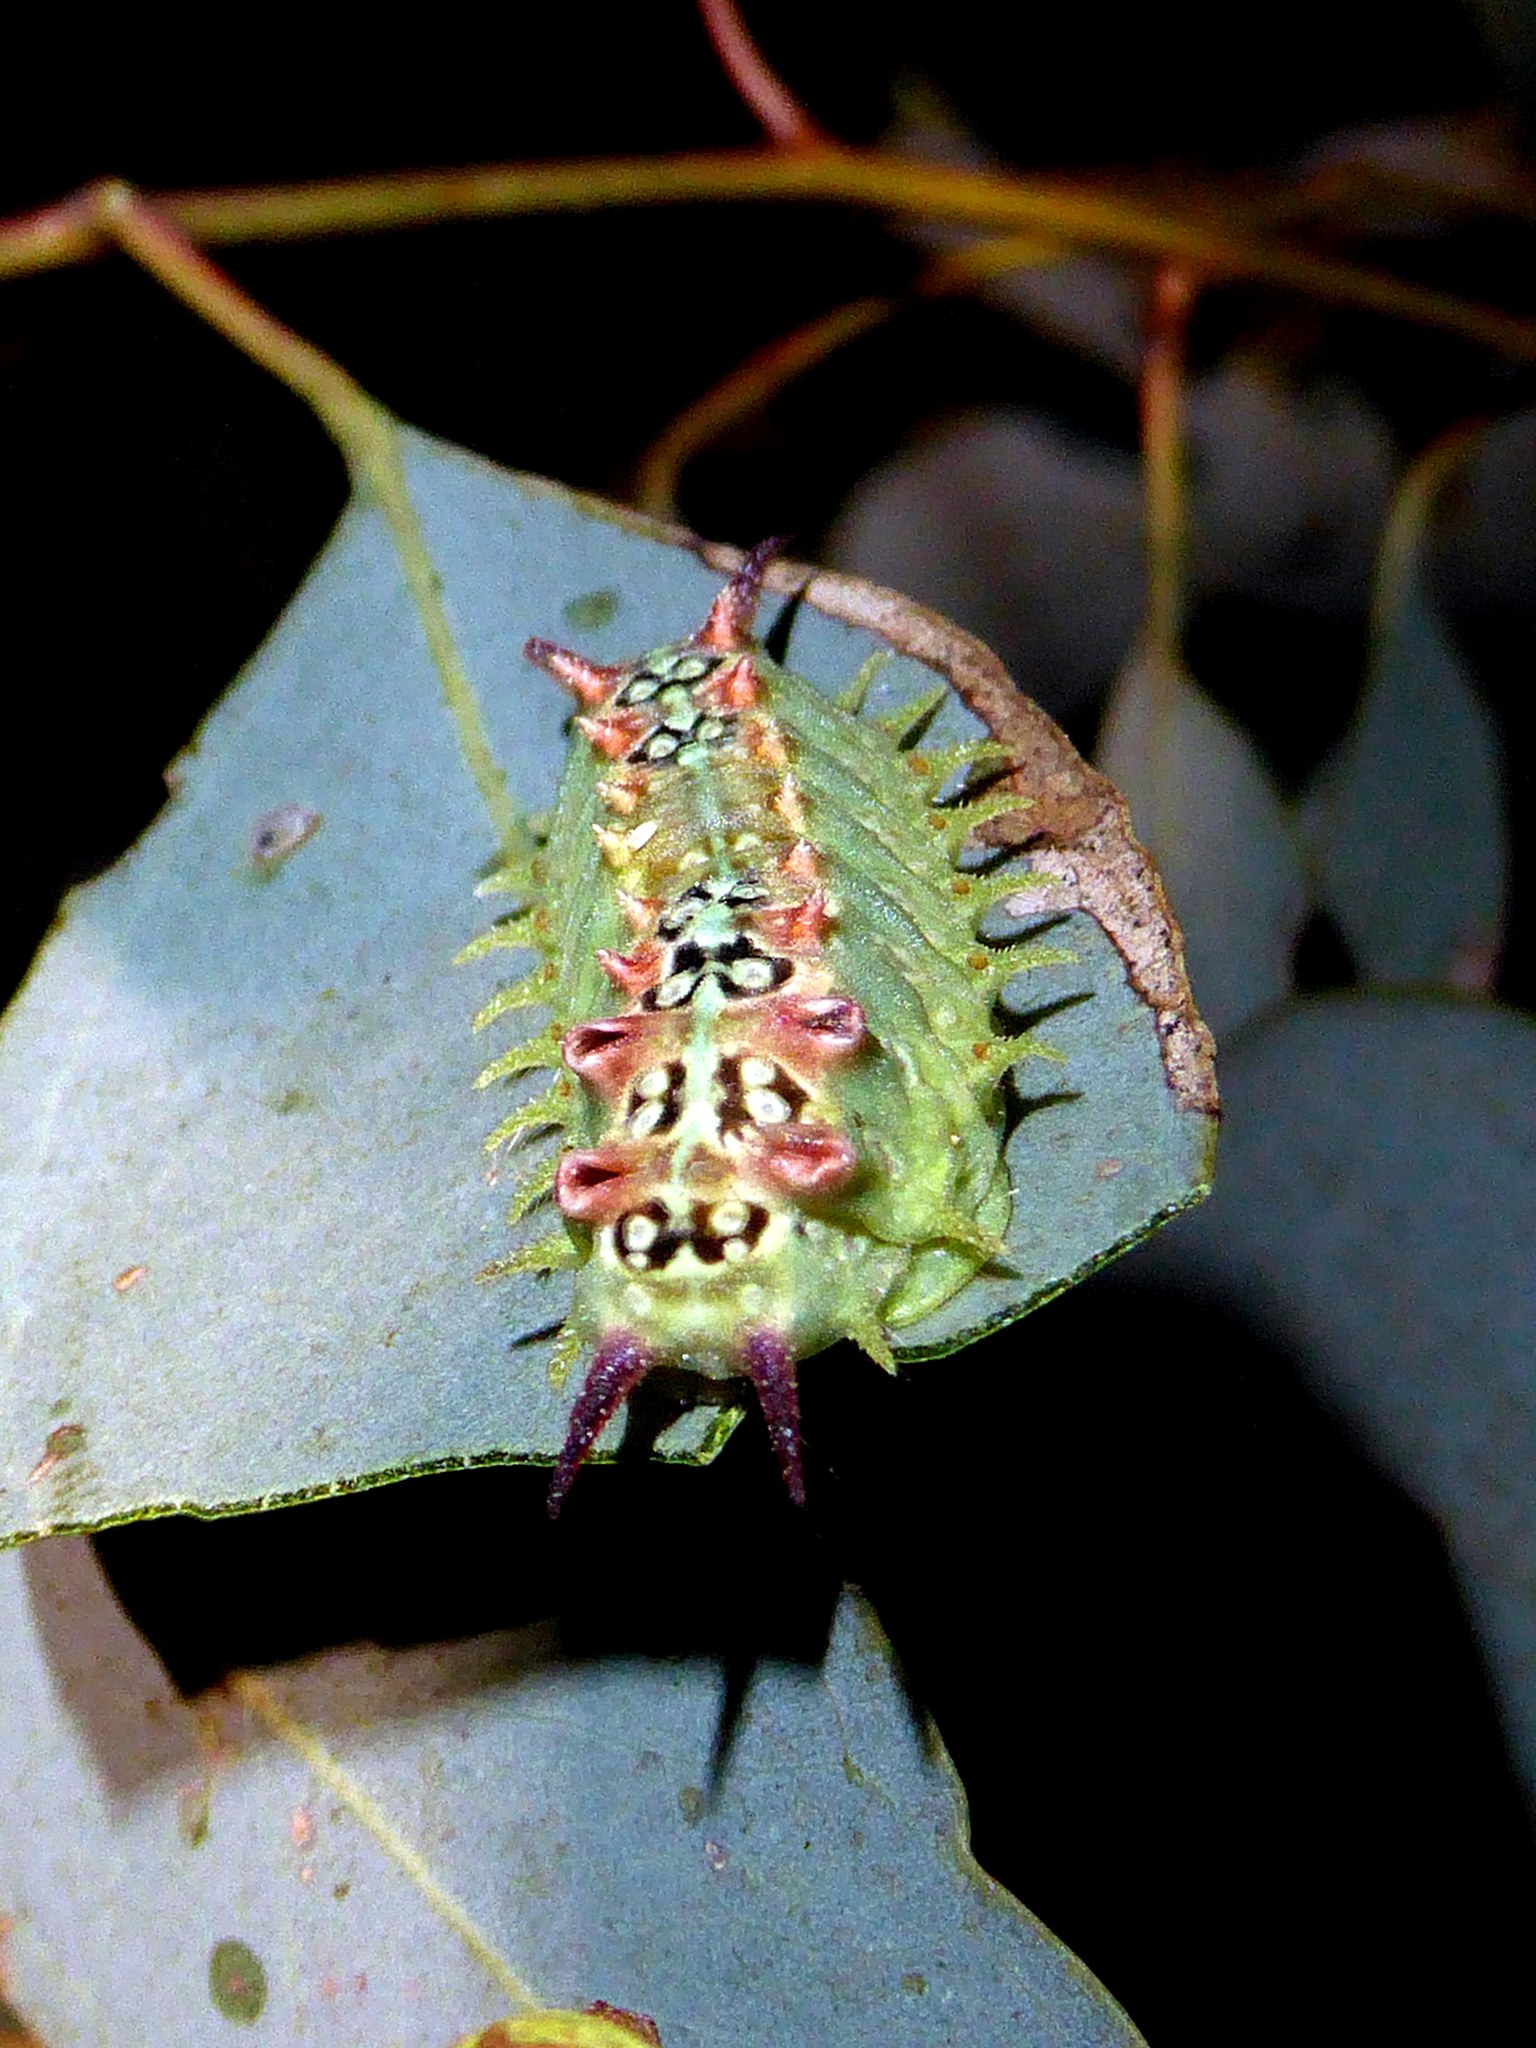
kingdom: Animalia
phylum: Arthropoda
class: Insecta
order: Lepidoptera
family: Limacodidae
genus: Doratifera
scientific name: Doratifera quadriguttata
